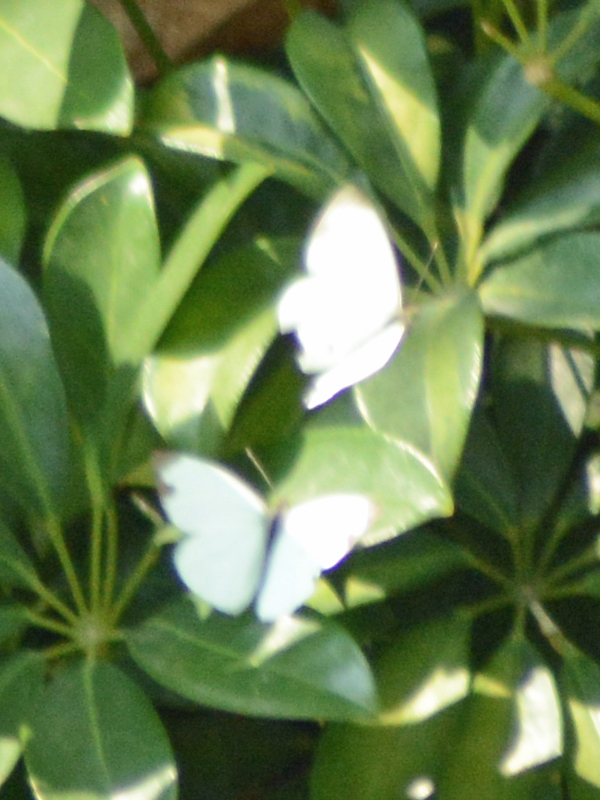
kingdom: Animalia
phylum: Arthropoda
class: Insecta
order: Lepidoptera
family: Pieridae
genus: Leptophobia
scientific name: Leptophobia aripa
